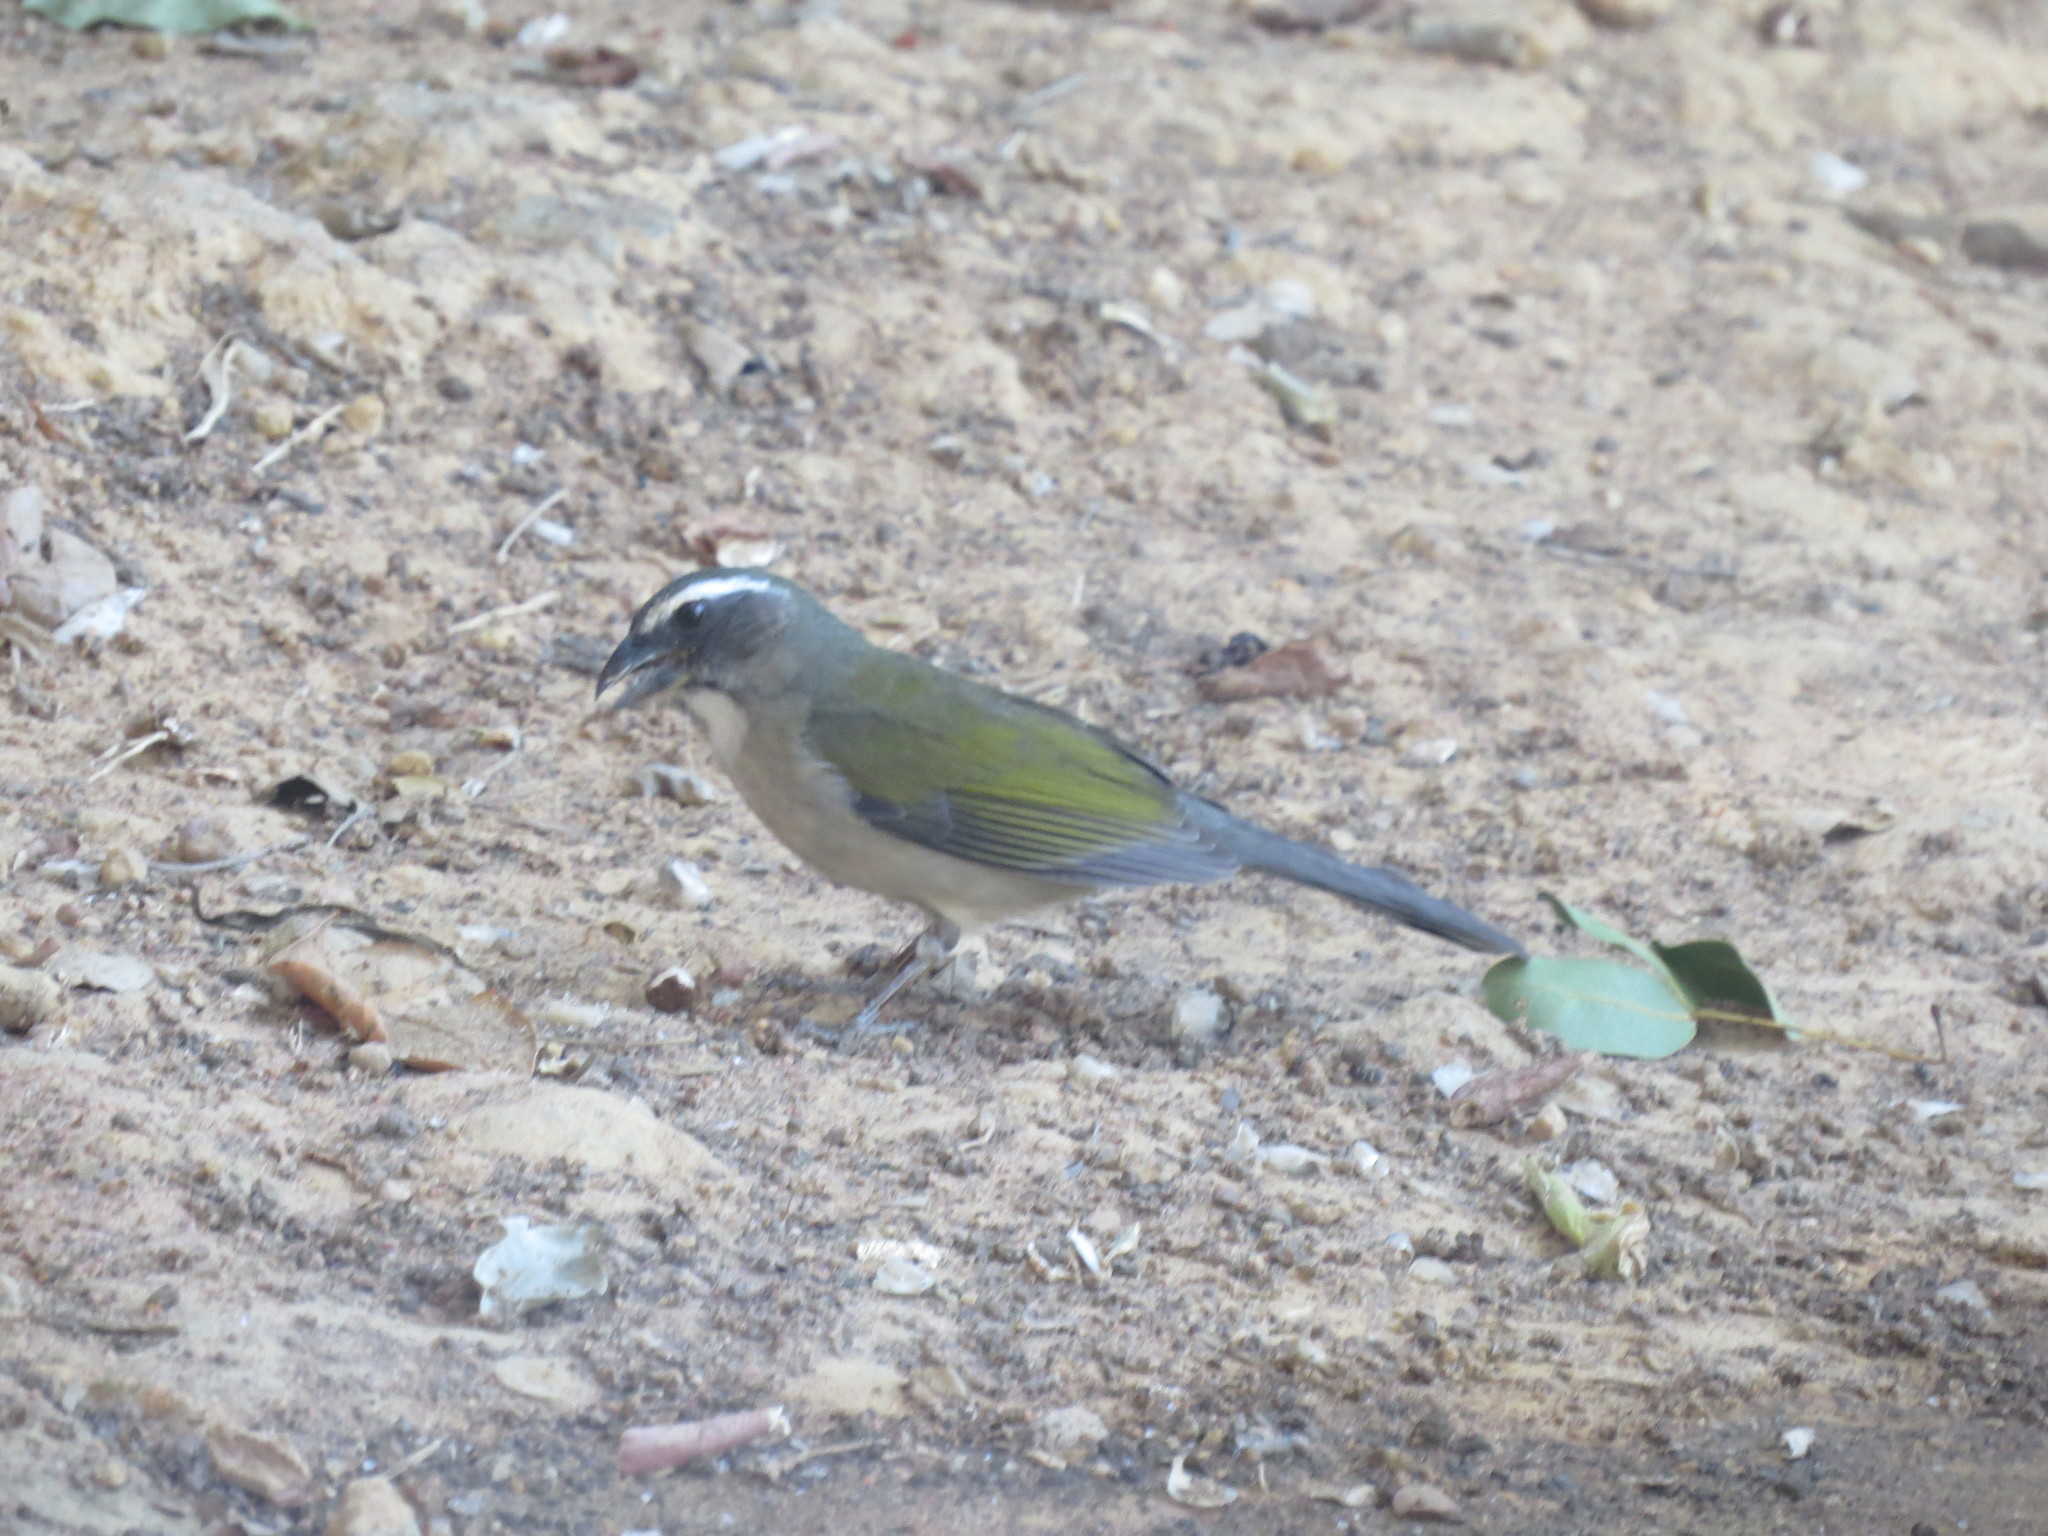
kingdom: Animalia
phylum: Chordata
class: Aves
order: Passeriformes
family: Thraupidae
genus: Saltator
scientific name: Saltator similis
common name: Green-winged saltator
